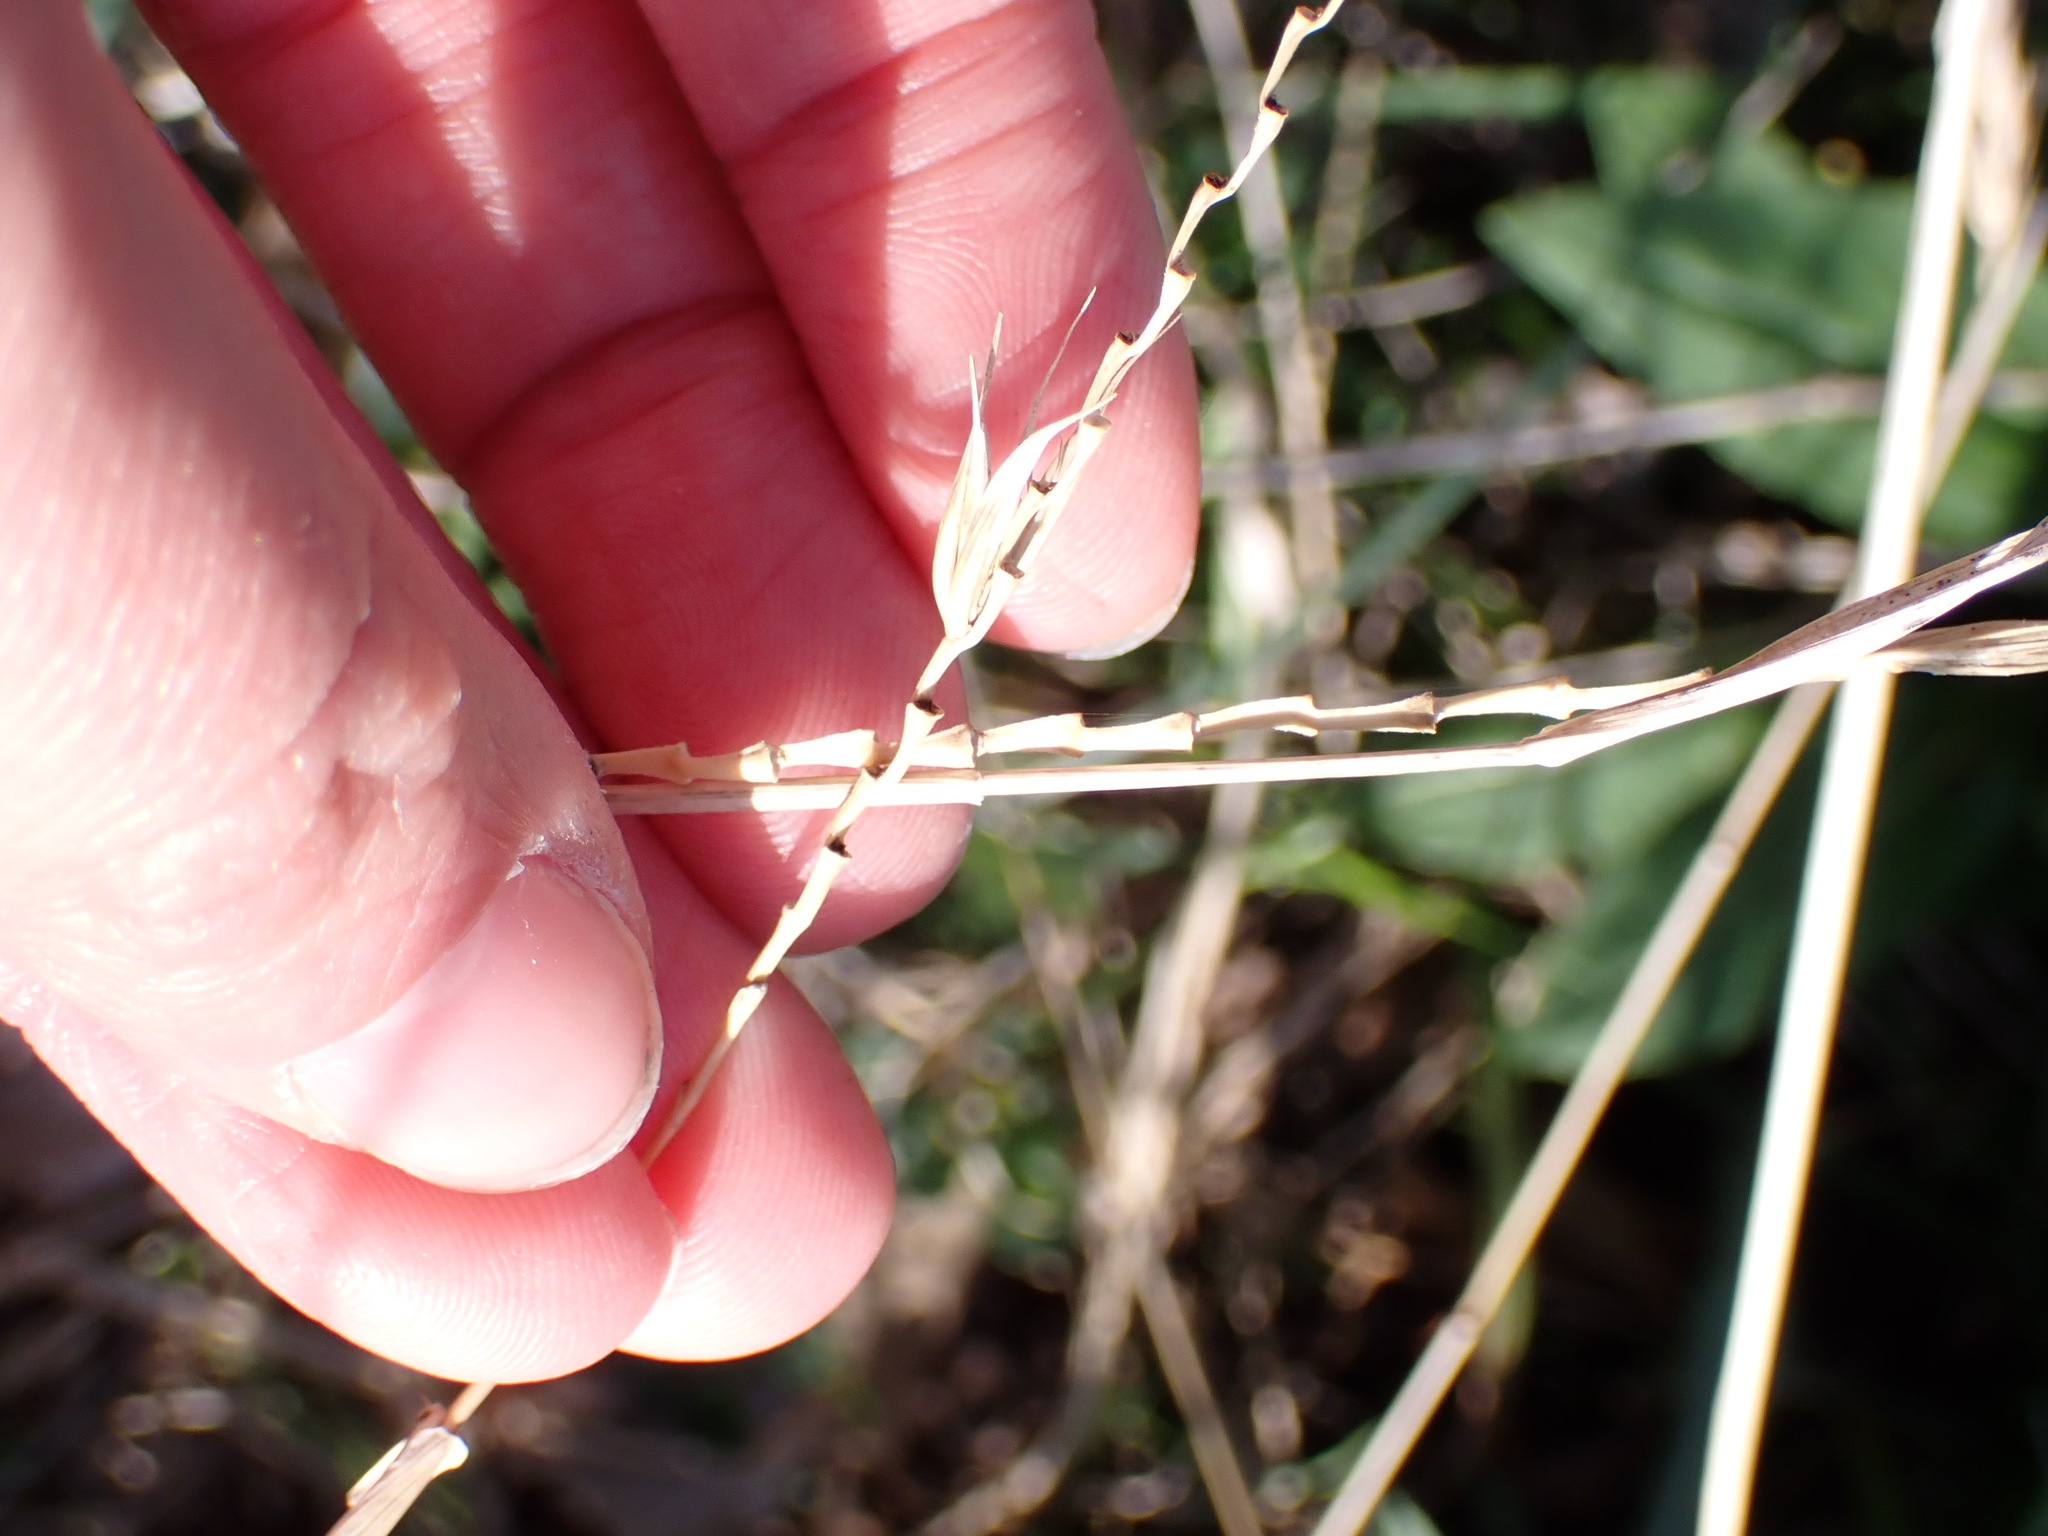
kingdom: Plantae
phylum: Tracheophyta
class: Liliopsida
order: Poales
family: Poaceae
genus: Elymus
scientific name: Elymus virginicus
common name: Common eastern wildrye
